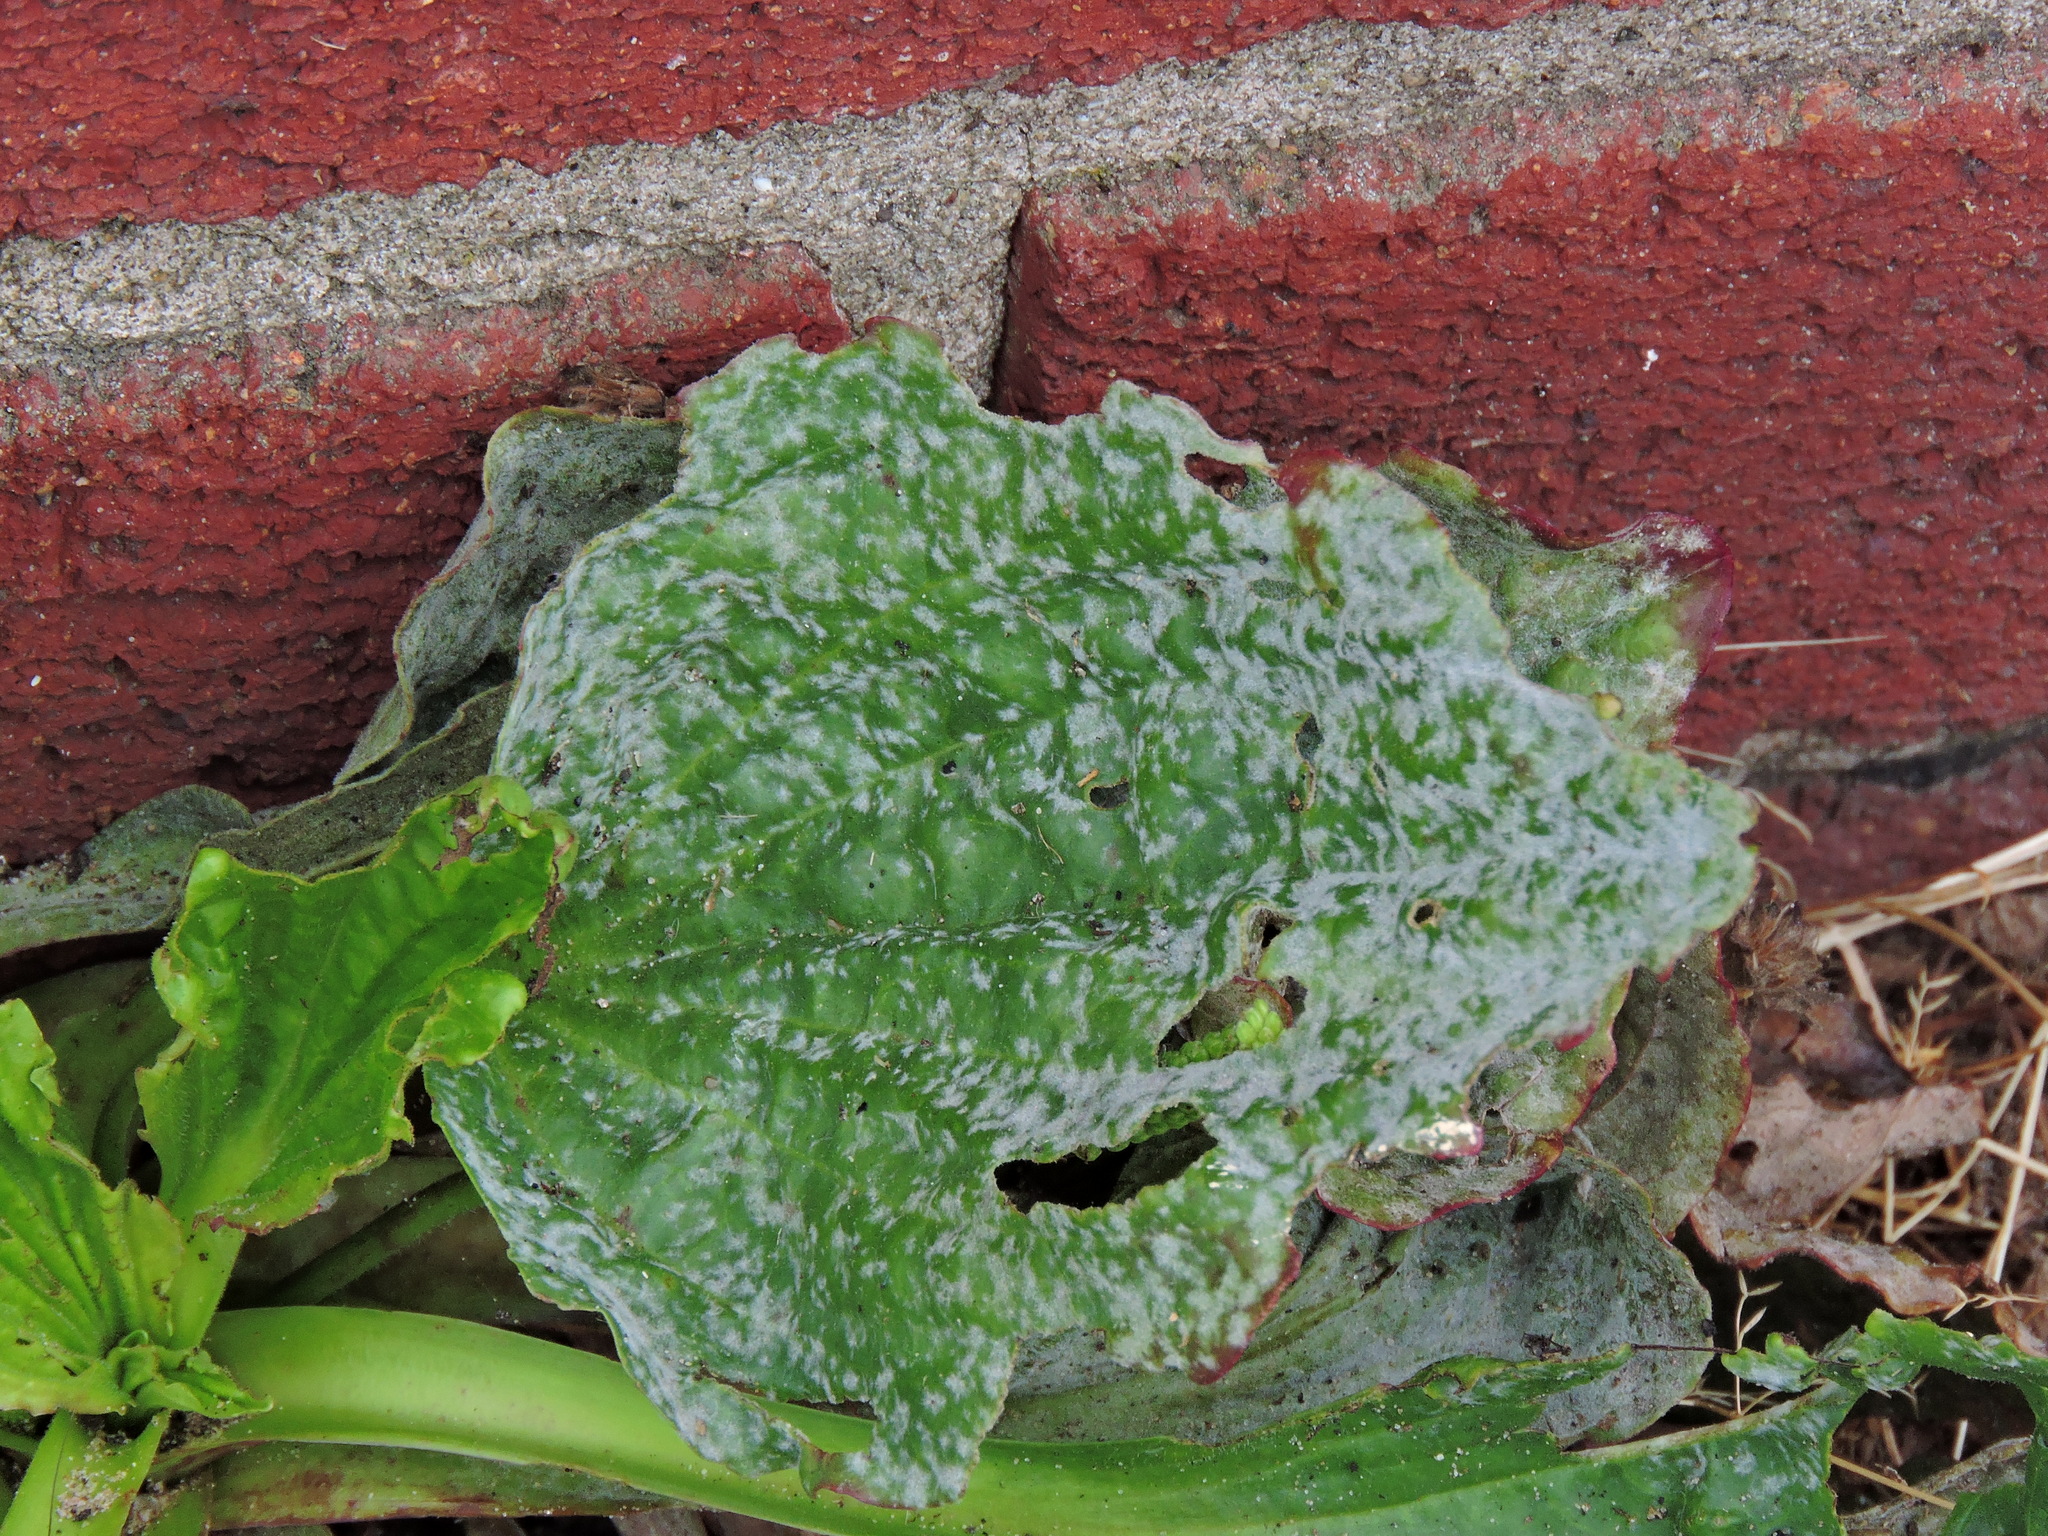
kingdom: Fungi
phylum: Ascomycota
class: Leotiomycetes
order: Helotiales
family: Erysiphaceae
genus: Golovinomyces
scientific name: Golovinomyces sordidus
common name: Plantain mildew
